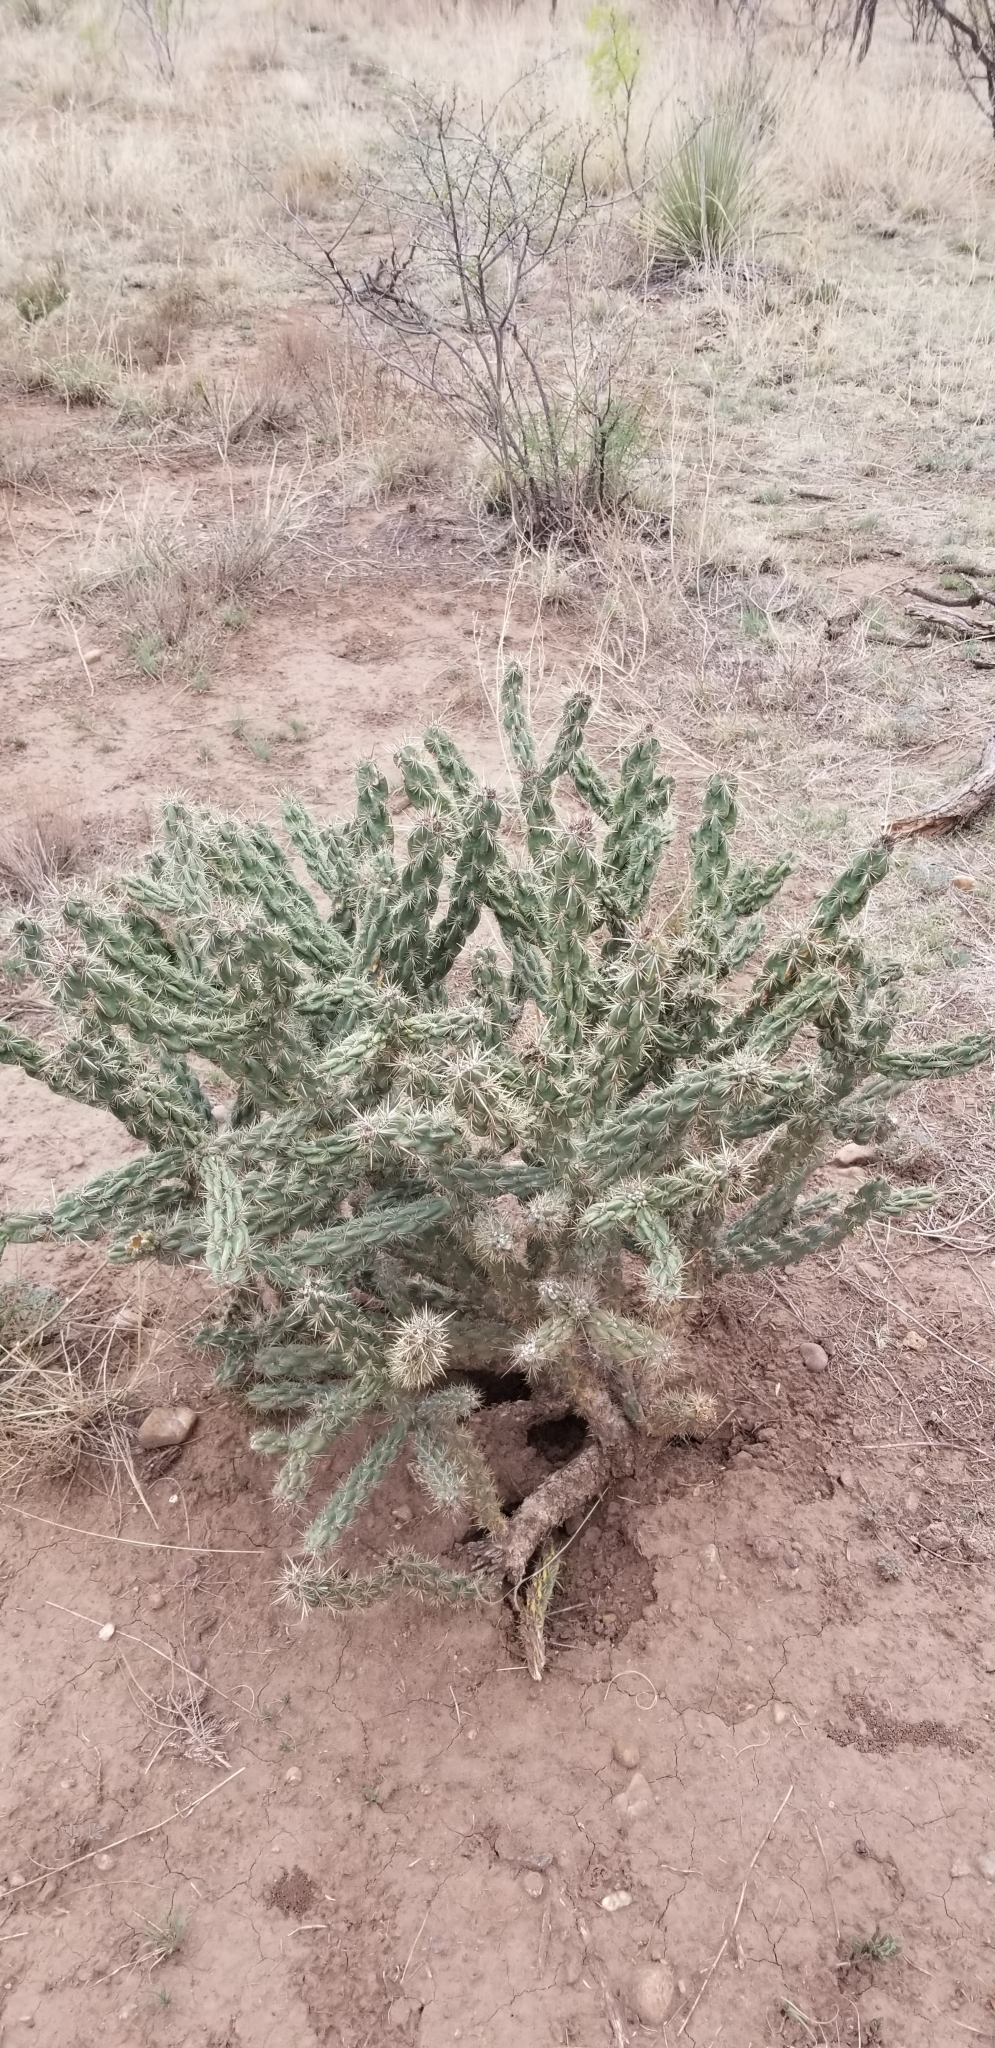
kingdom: Plantae
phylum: Tracheophyta
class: Magnoliopsida
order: Caryophyllales
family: Cactaceae
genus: Cylindropuntia
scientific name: Cylindropuntia imbricata
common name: Candelabrum cactus
